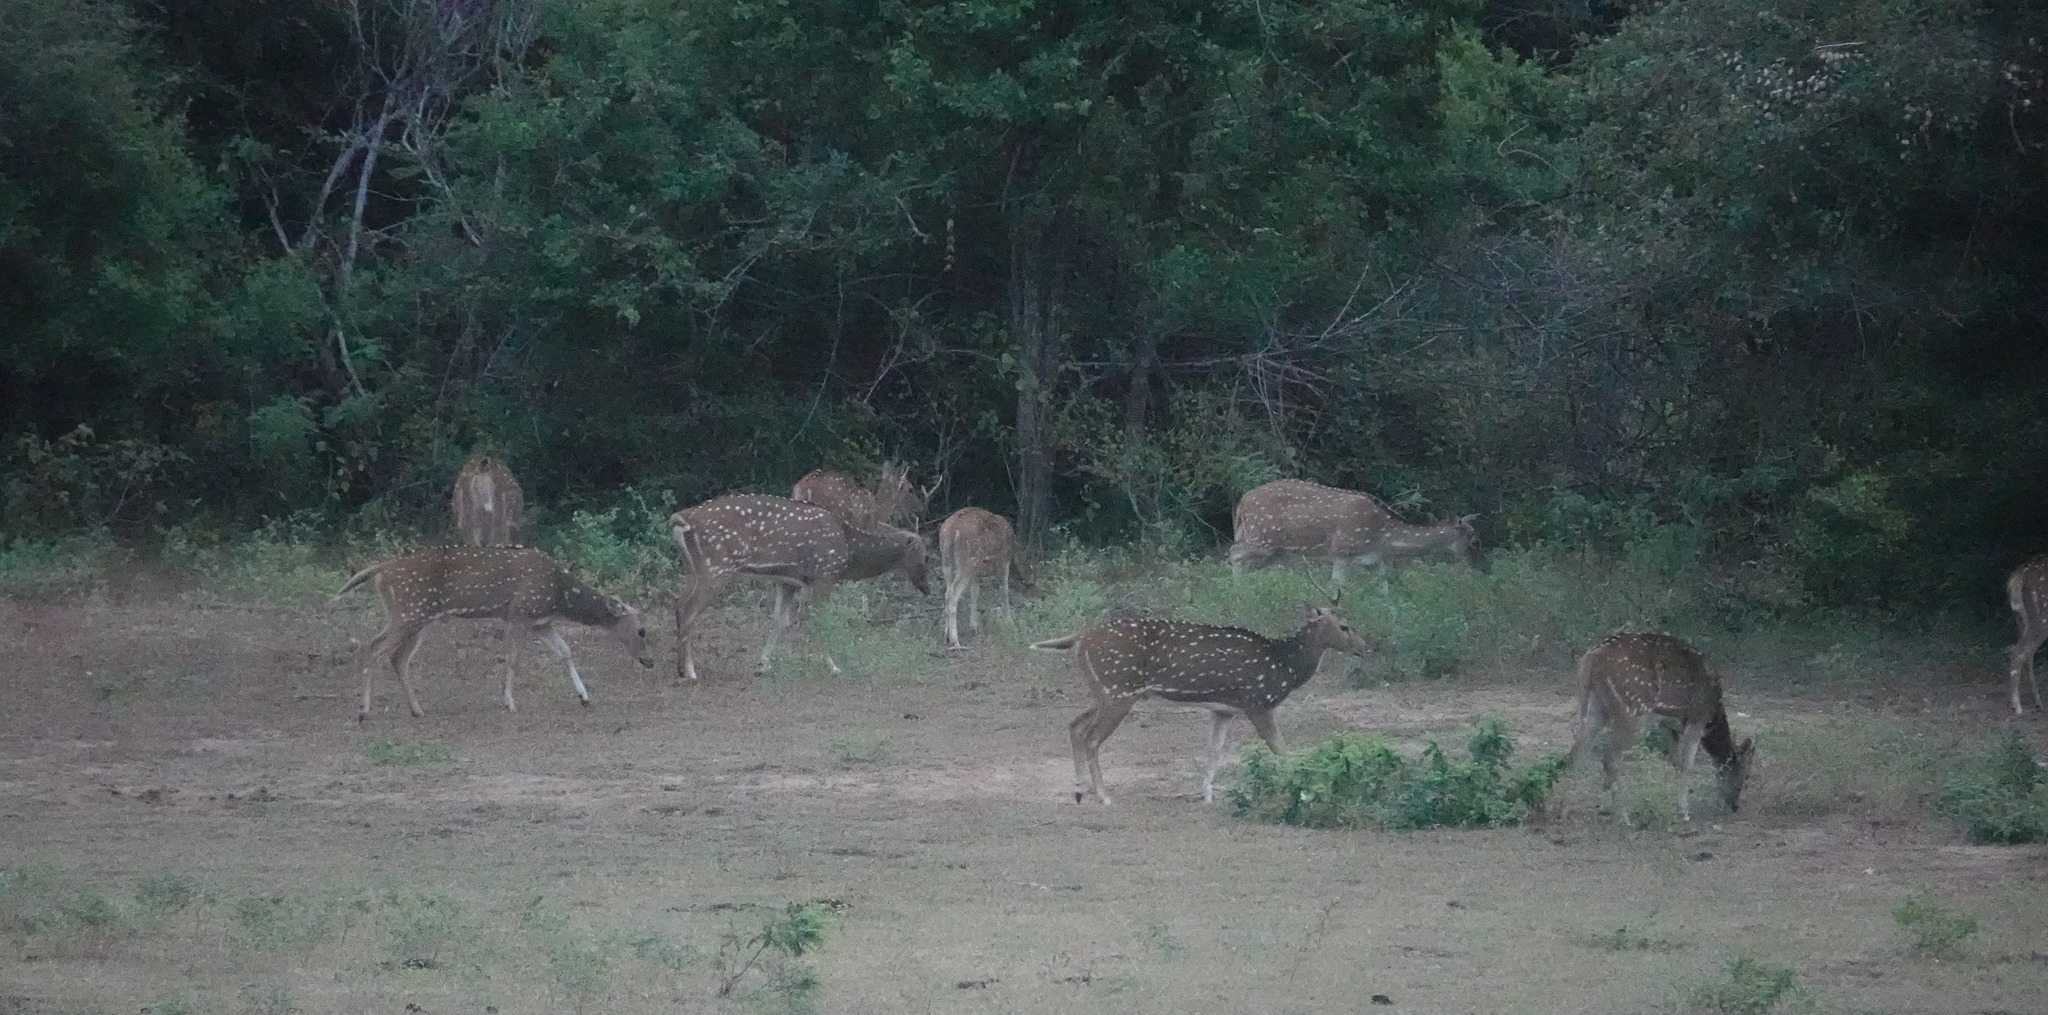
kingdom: Animalia
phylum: Chordata
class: Mammalia
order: Artiodactyla
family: Cervidae
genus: Axis
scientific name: Axis axis
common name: Chital
